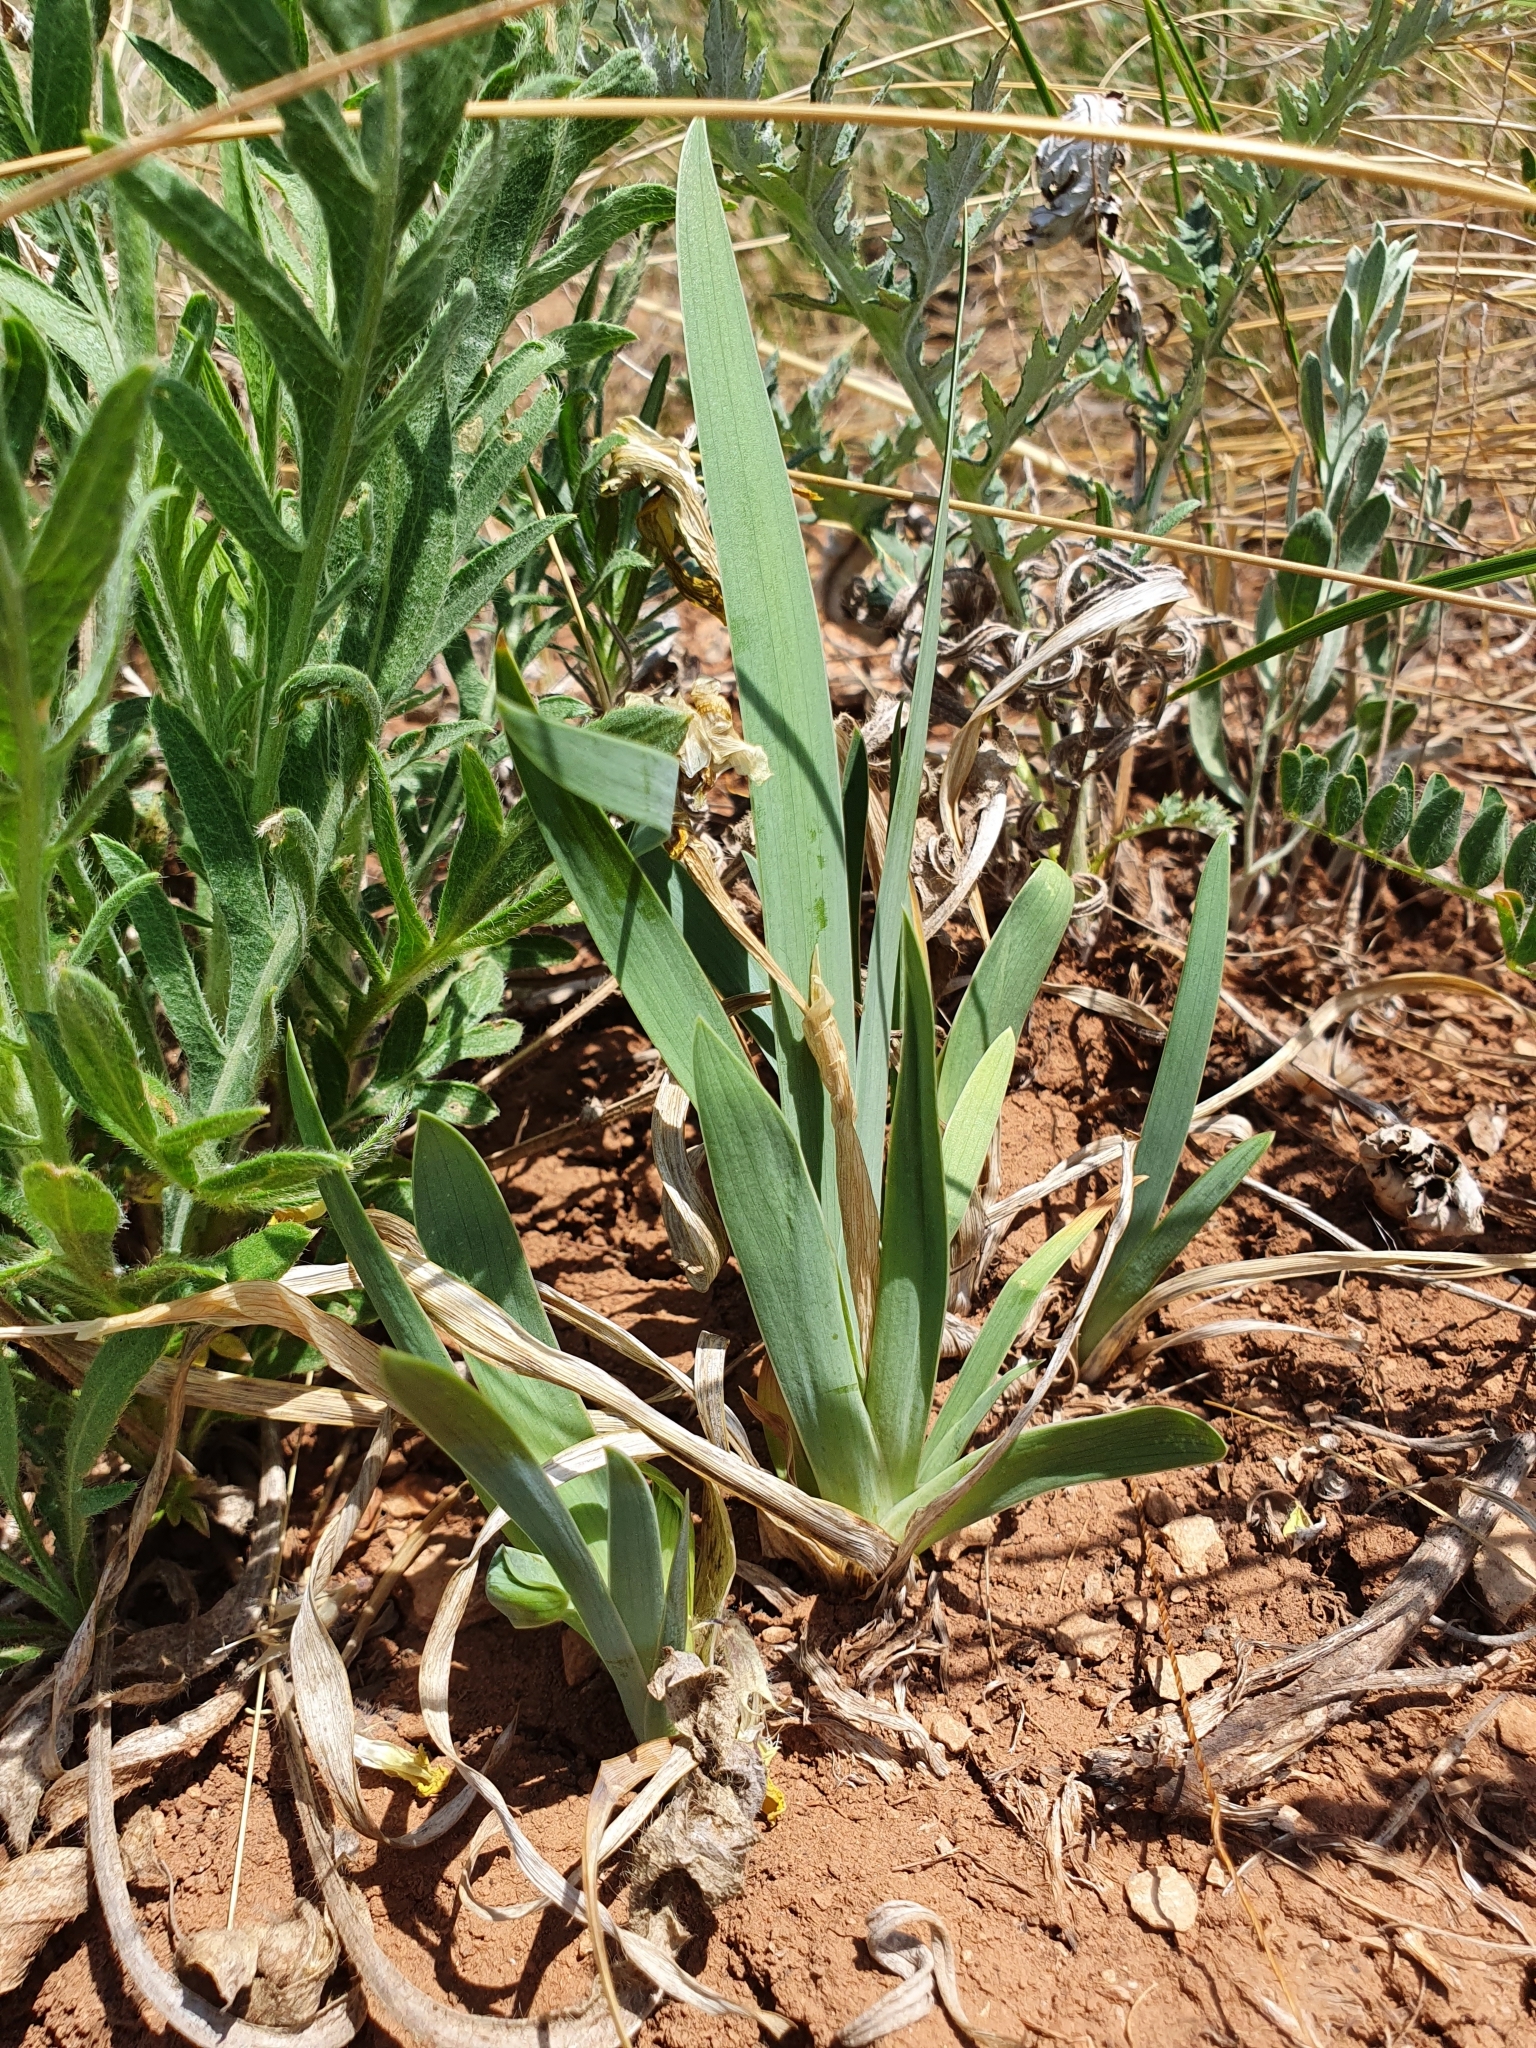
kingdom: Plantae
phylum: Tracheophyta
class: Liliopsida
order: Asparagales
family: Iridaceae
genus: Iris
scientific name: Iris pumila
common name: Dwarf iris
